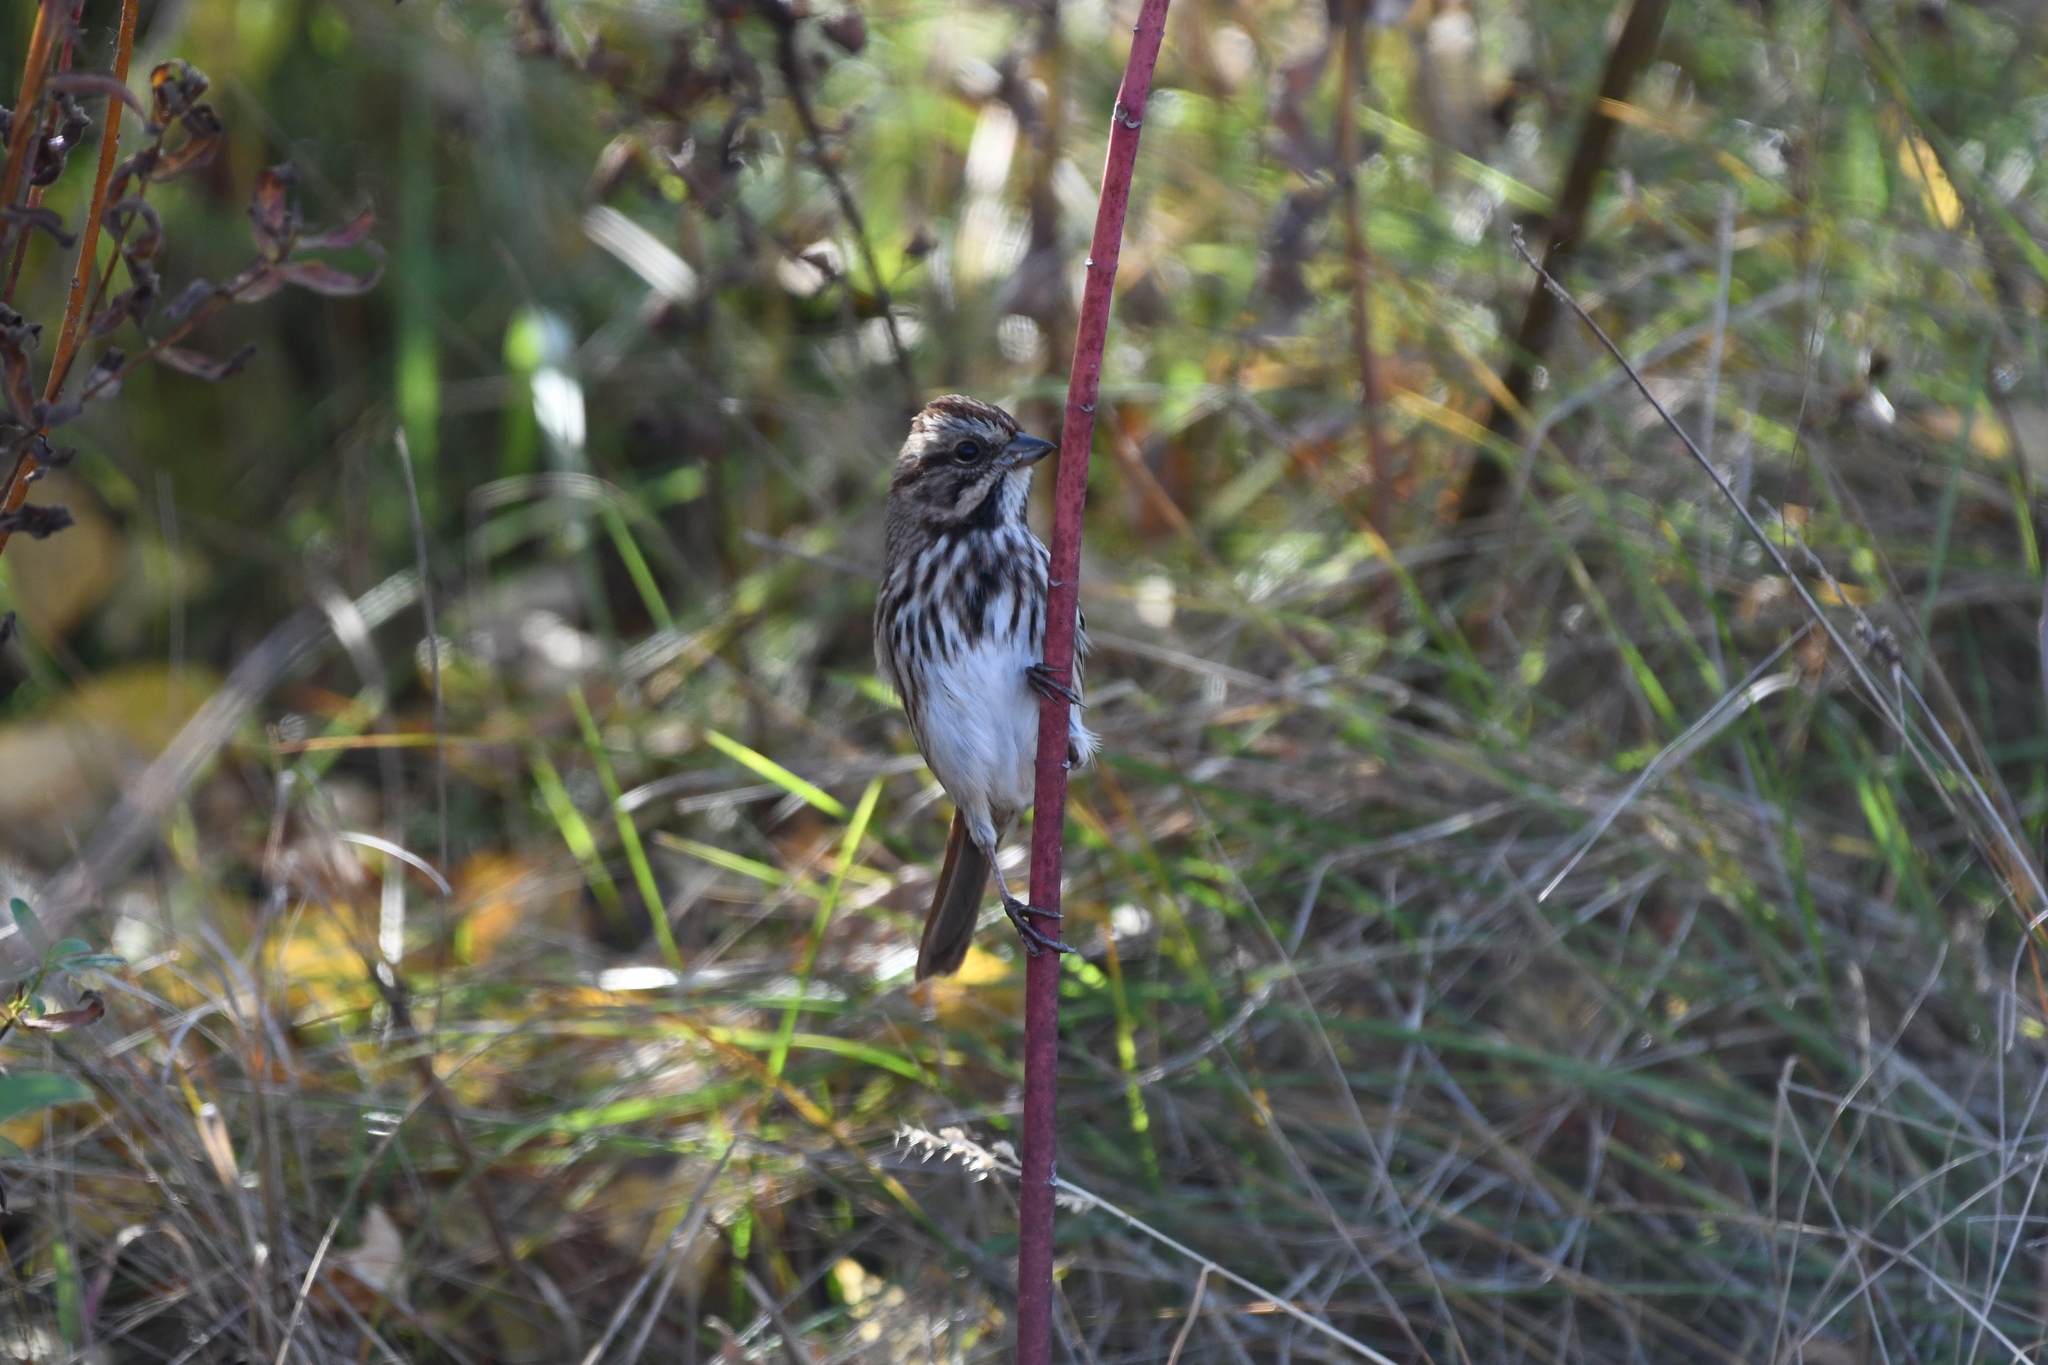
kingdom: Animalia
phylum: Chordata
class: Aves
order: Passeriformes
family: Passerellidae
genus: Melospiza
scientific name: Melospiza melodia
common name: Song sparrow
